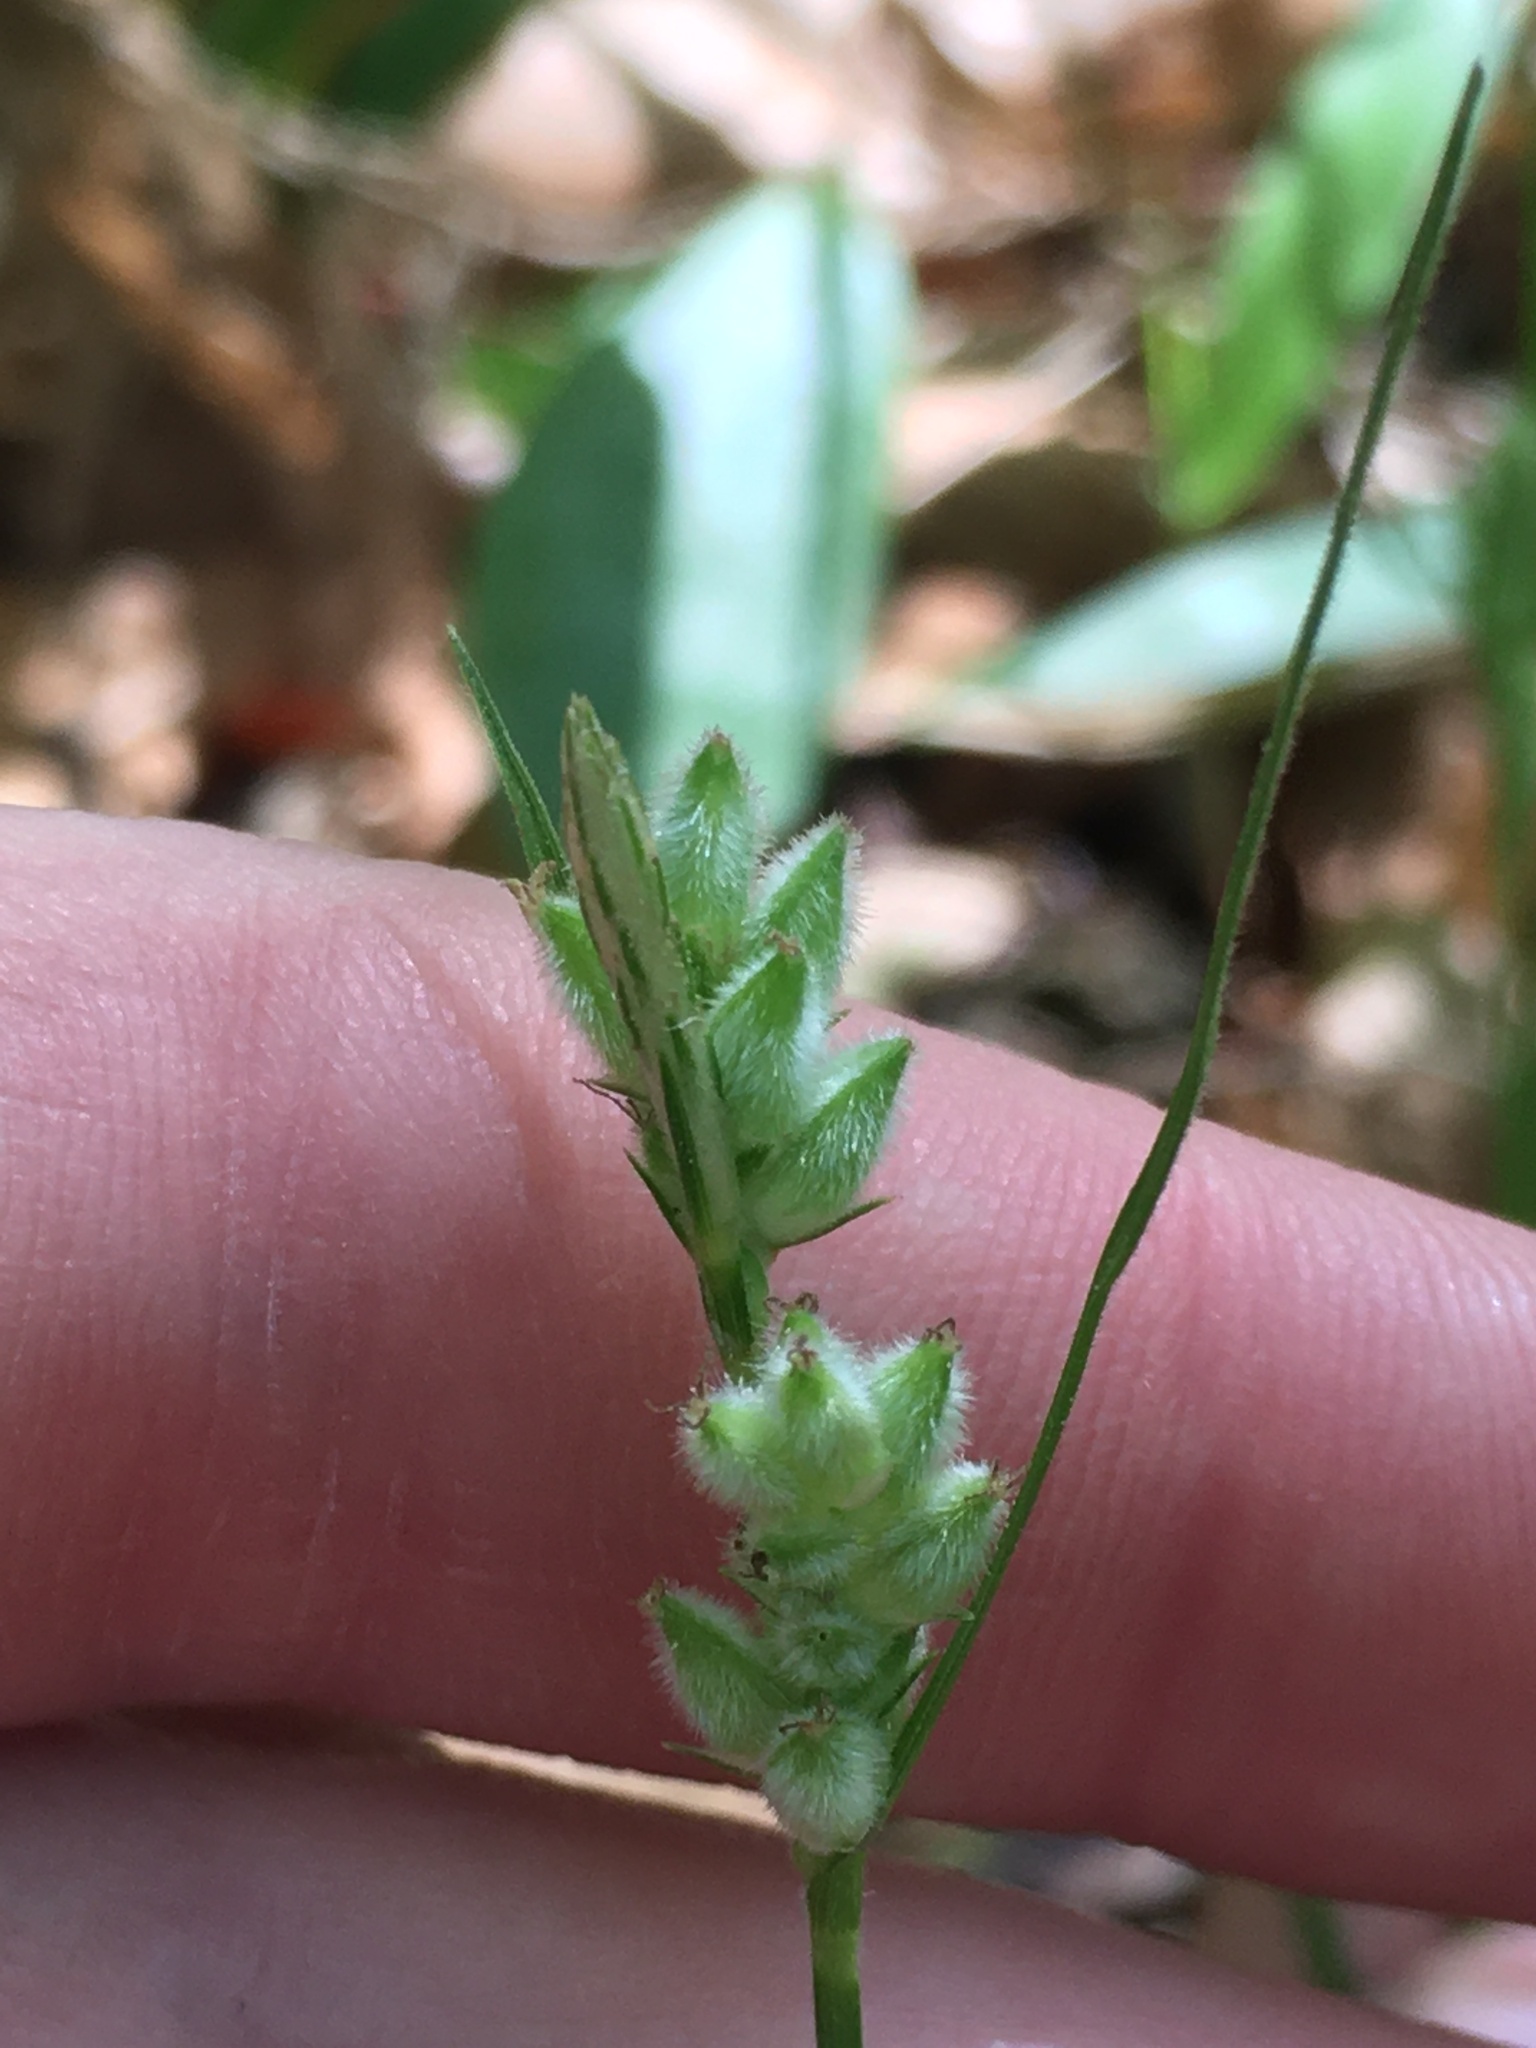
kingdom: Plantae
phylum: Tracheophyta
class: Liliopsida
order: Poales
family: Cyperaceae
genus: Carex
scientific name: Carex dasycarpa
